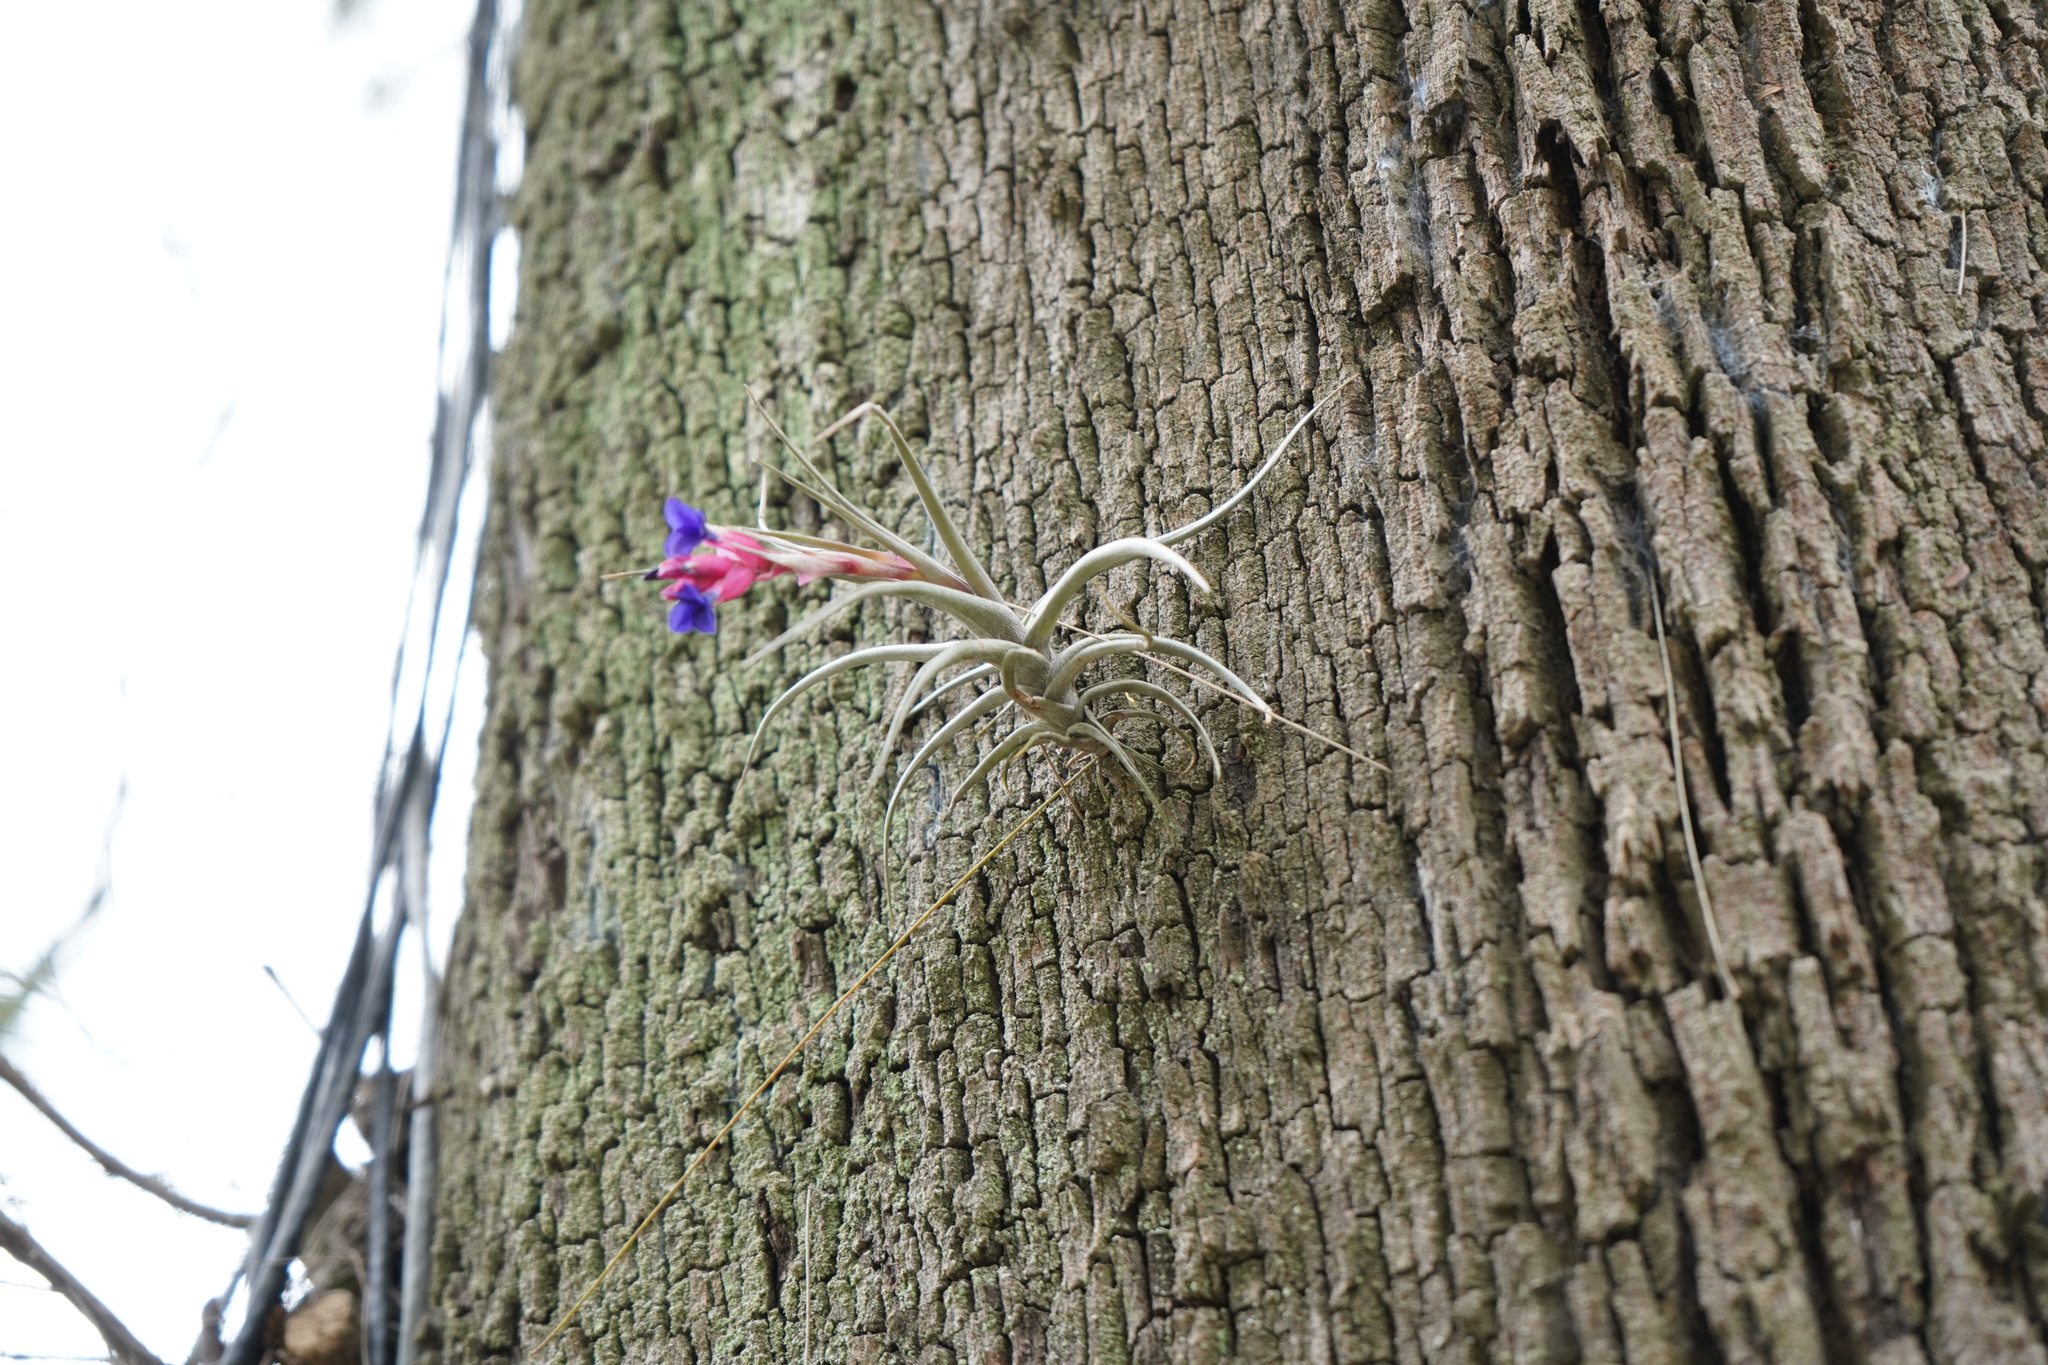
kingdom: Plantae
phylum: Tracheophyta
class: Liliopsida
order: Poales
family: Bromeliaceae
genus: Tillandsia
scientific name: Tillandsia aeranthos
